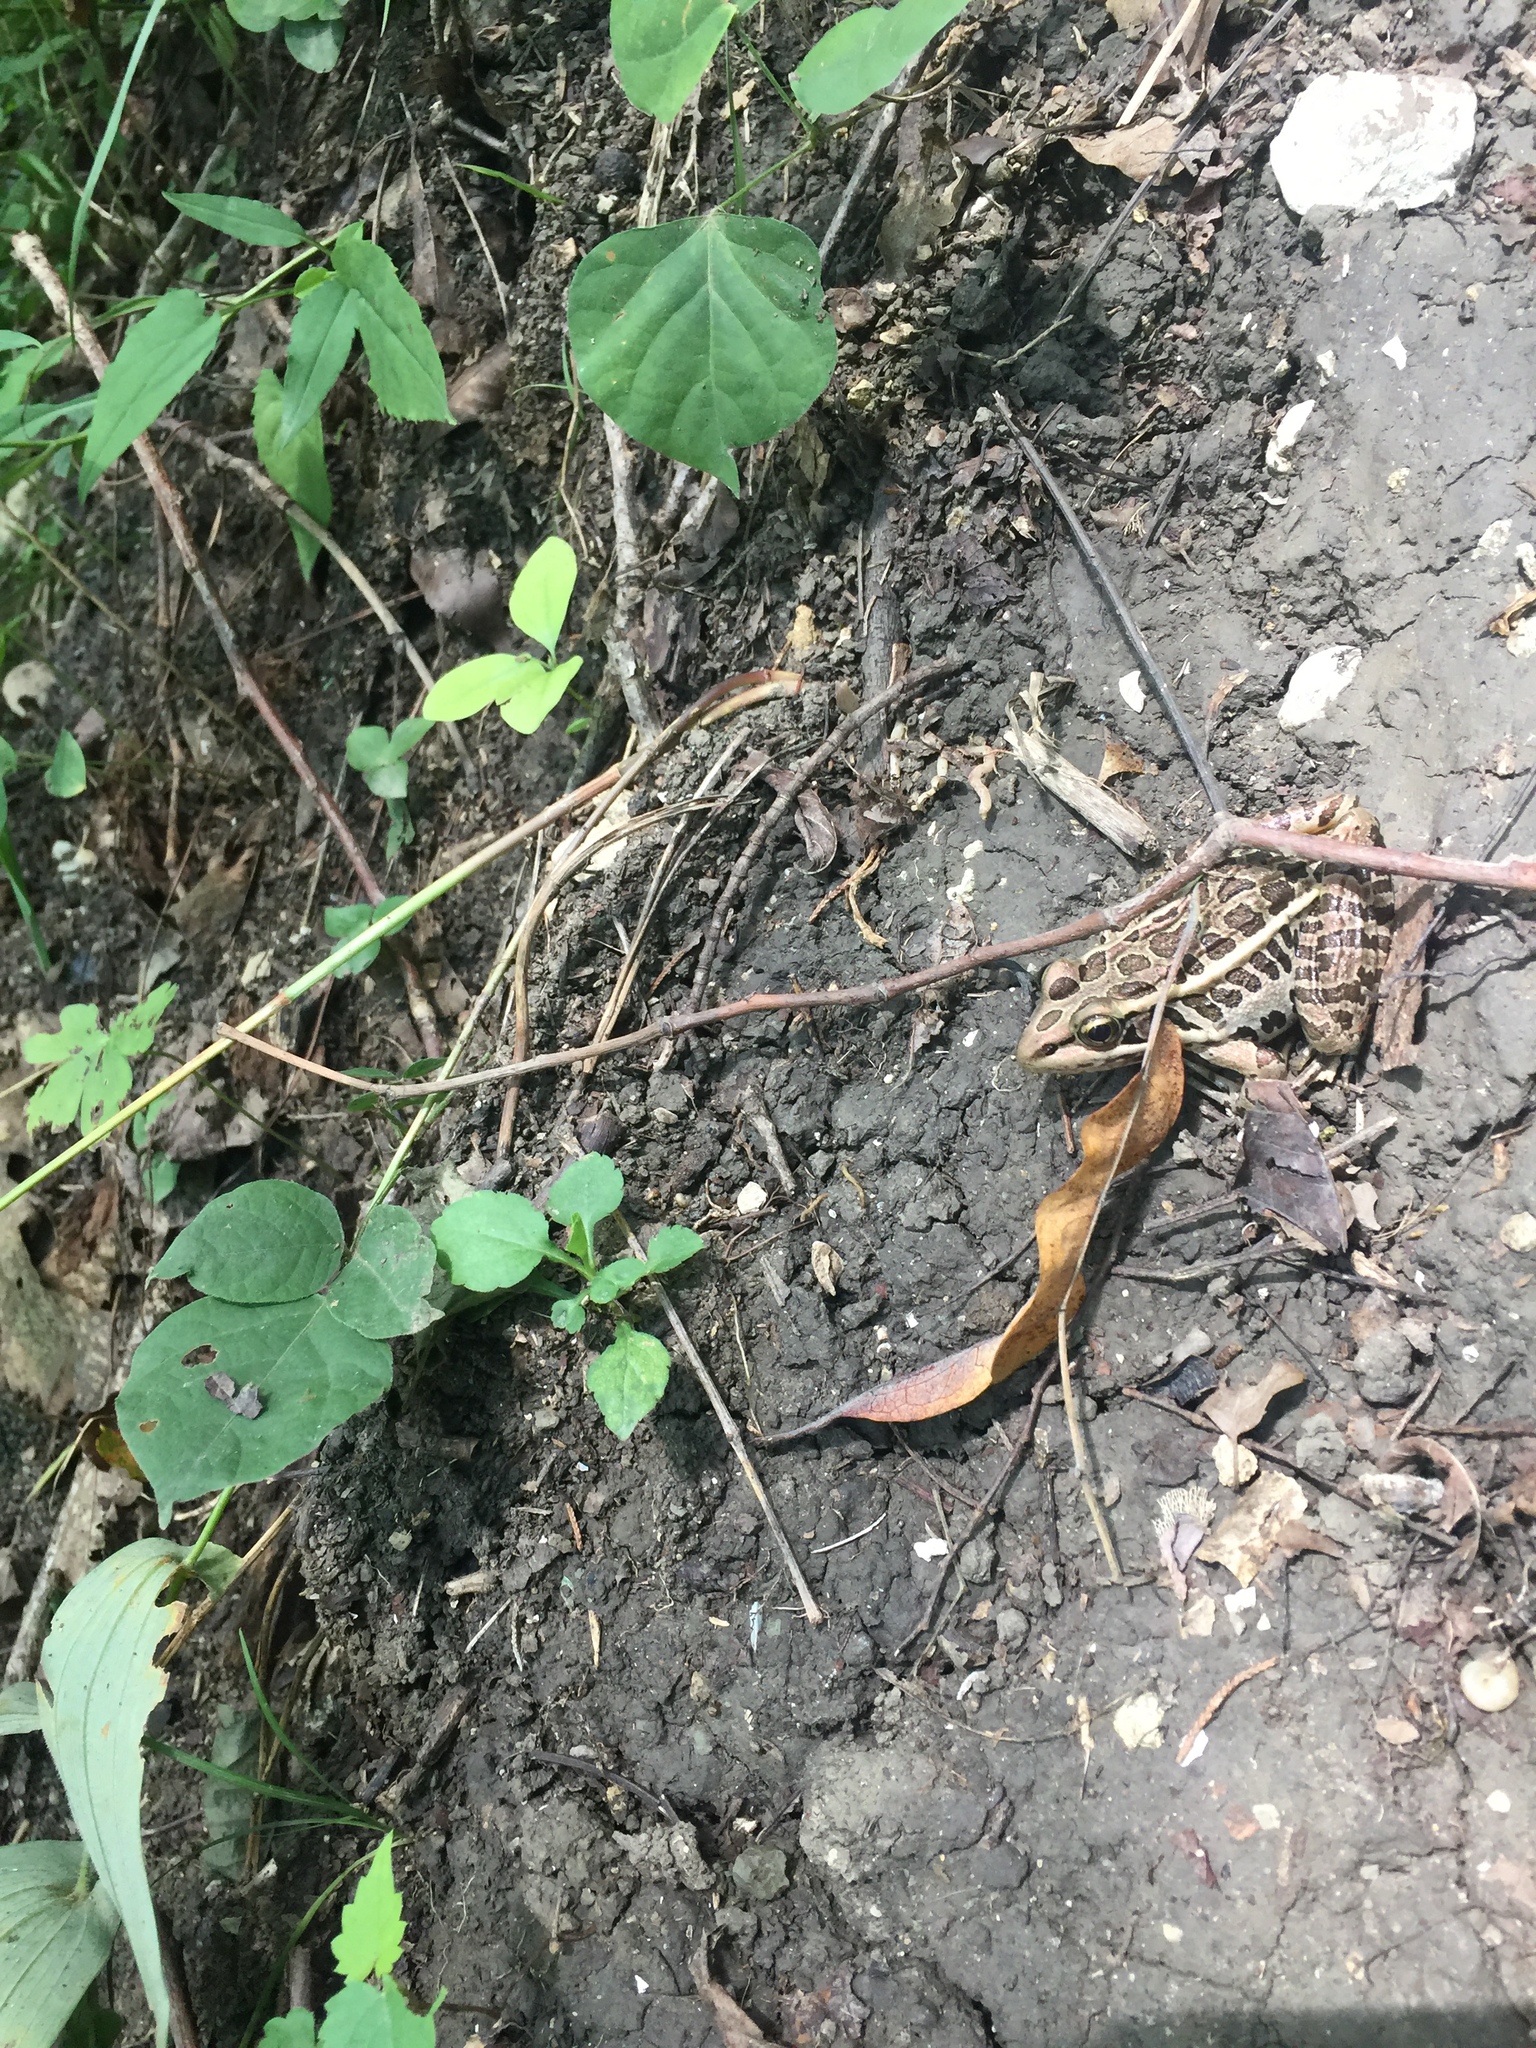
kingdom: Animalia
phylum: Chordata
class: Amphibia
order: Anura
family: Ranidae
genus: Lithobates
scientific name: Lithobates palustris
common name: Pickerel frog
